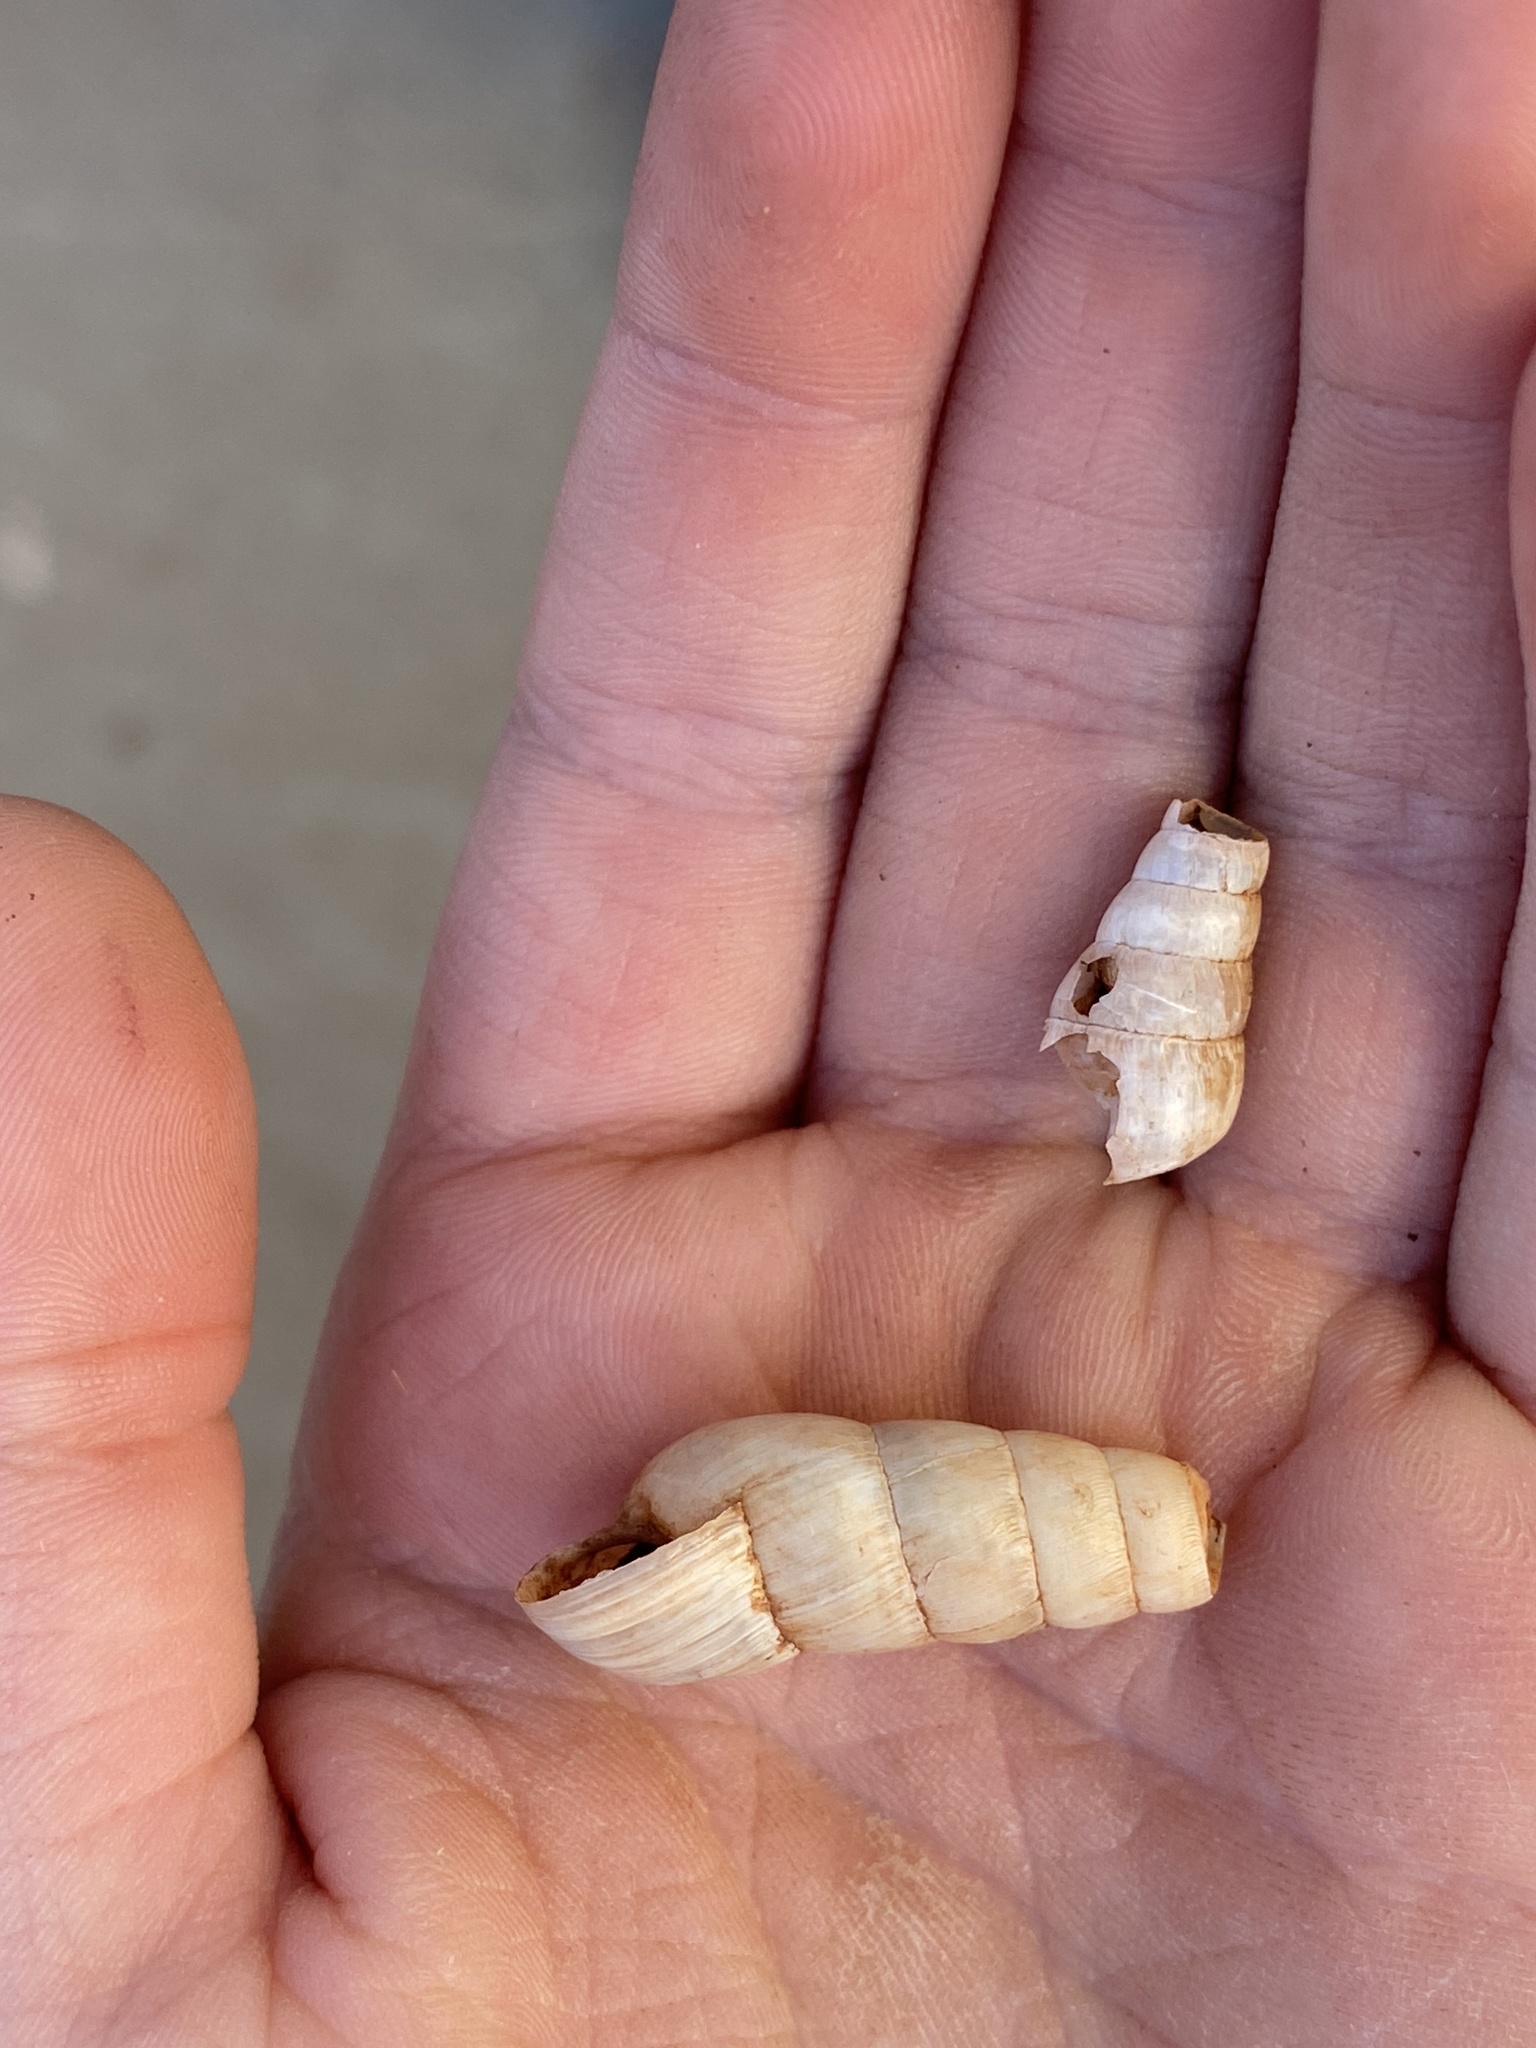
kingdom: Animalia
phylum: Mollusca
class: Gastropoda
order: Stylommatophora
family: Achatinidae
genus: Rumina
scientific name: Rumina decollata
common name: Decollate snail
